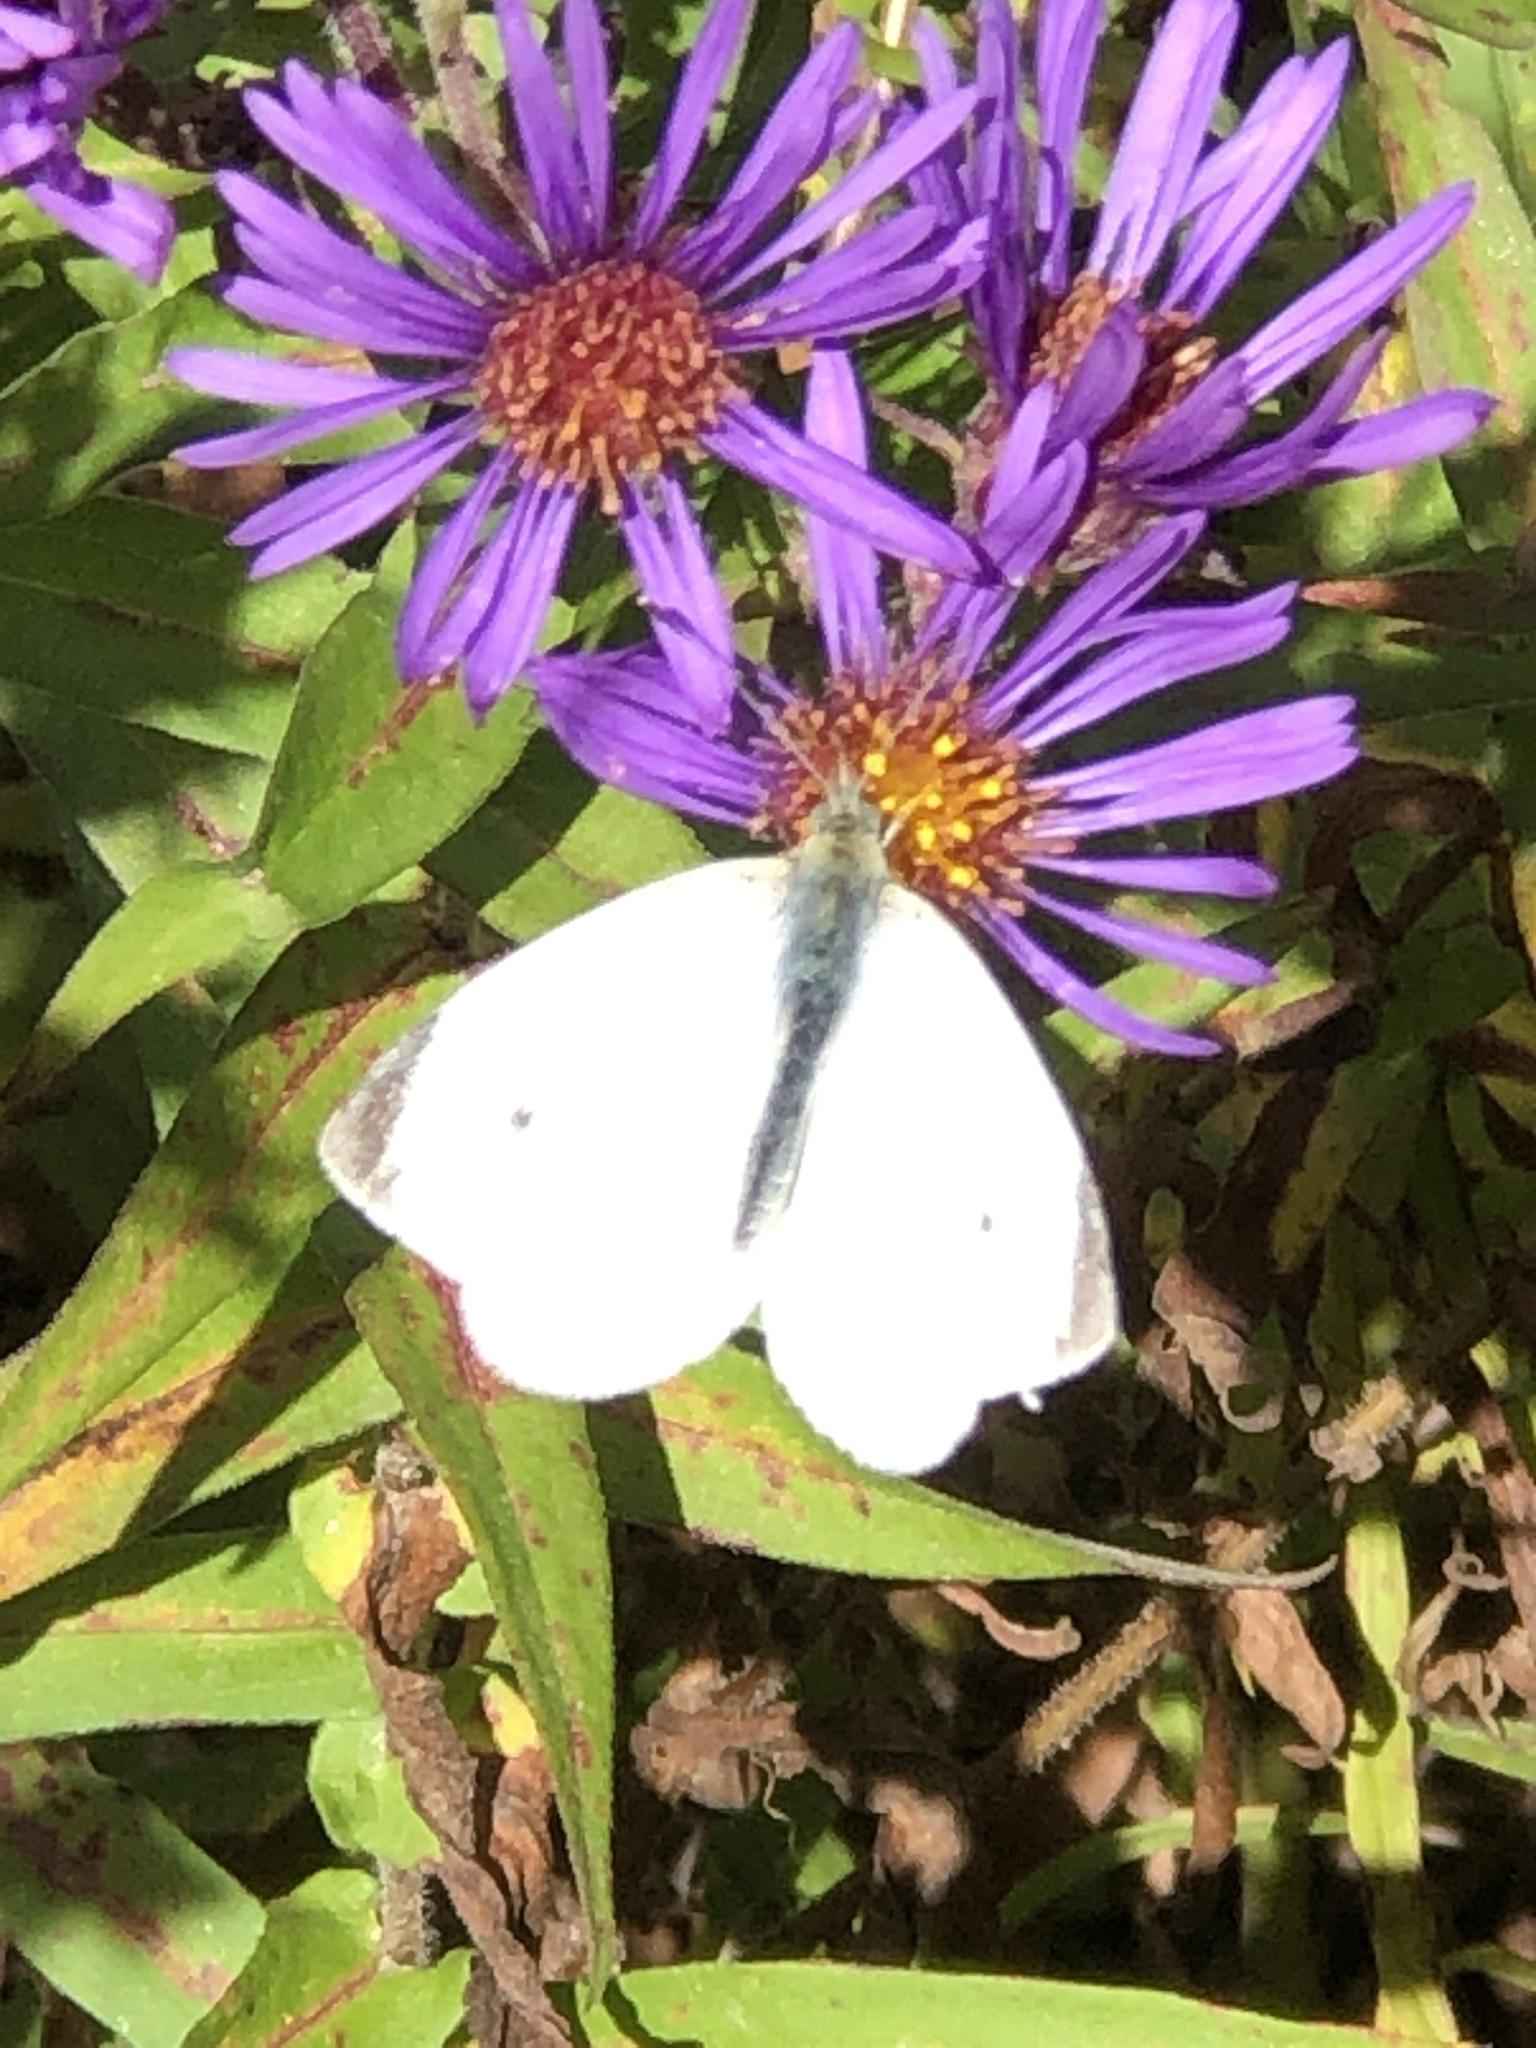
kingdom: Animalia
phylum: Arthropoda
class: Insecta
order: Lepidoptera
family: Pieridae
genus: Pieris
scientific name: Pieris rapae
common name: Small white
